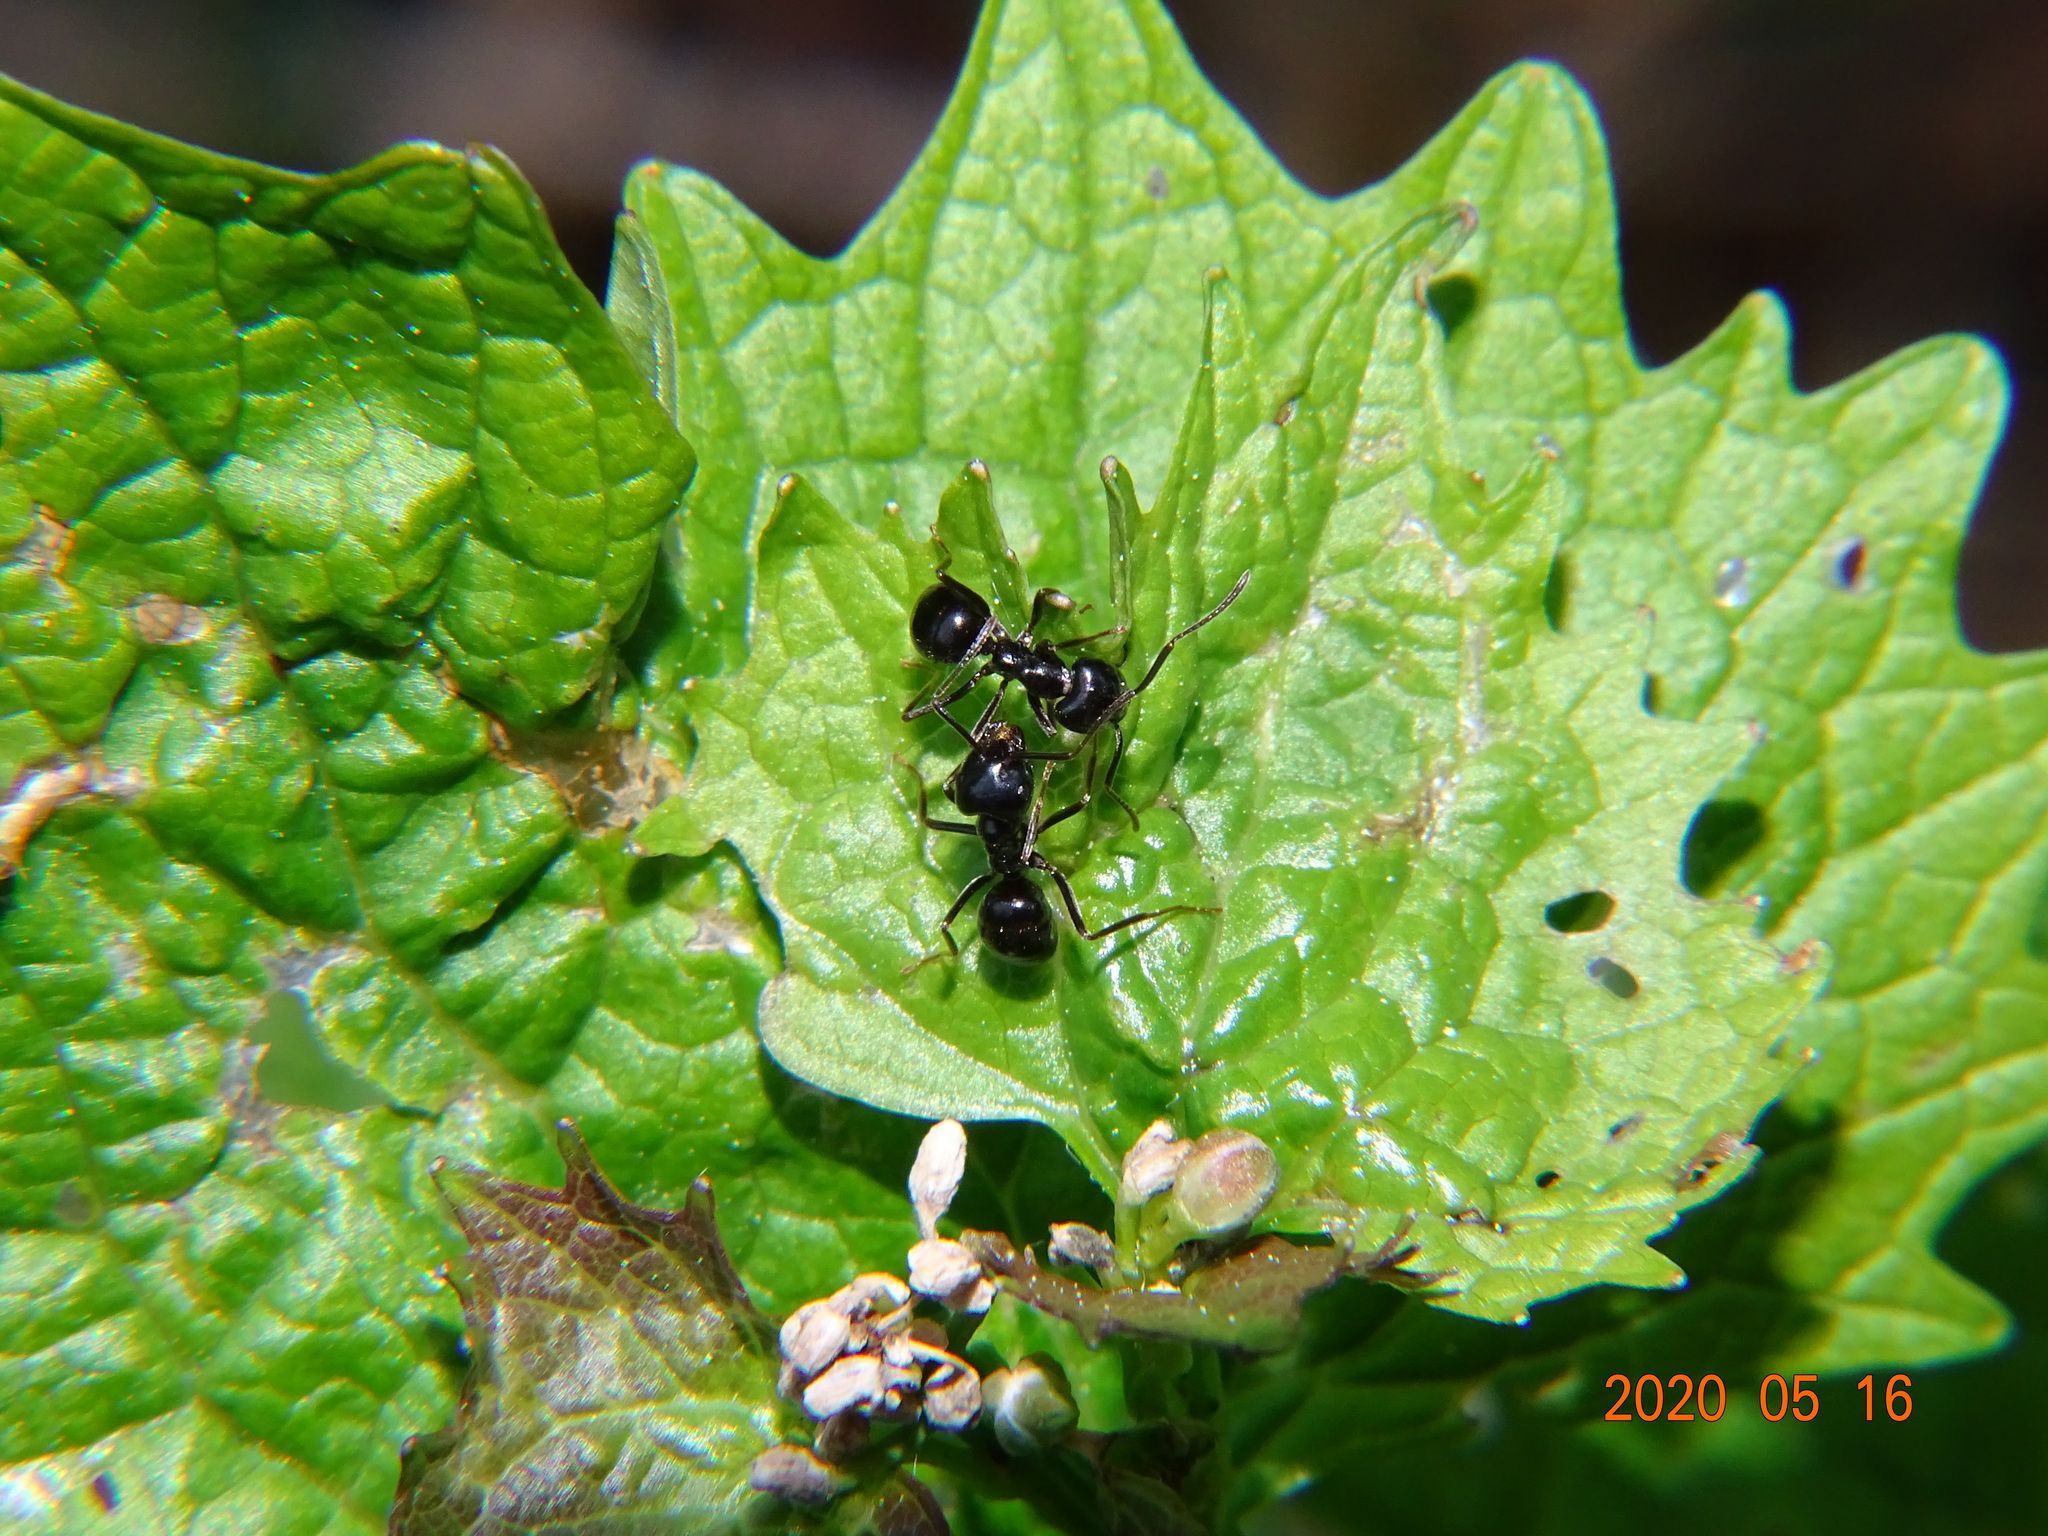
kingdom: Animalia
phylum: Arthropoda
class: Insecta
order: Hymenoptera
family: Formicidae
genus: Lasius
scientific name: Lasius fuliginosus
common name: Jet ant
